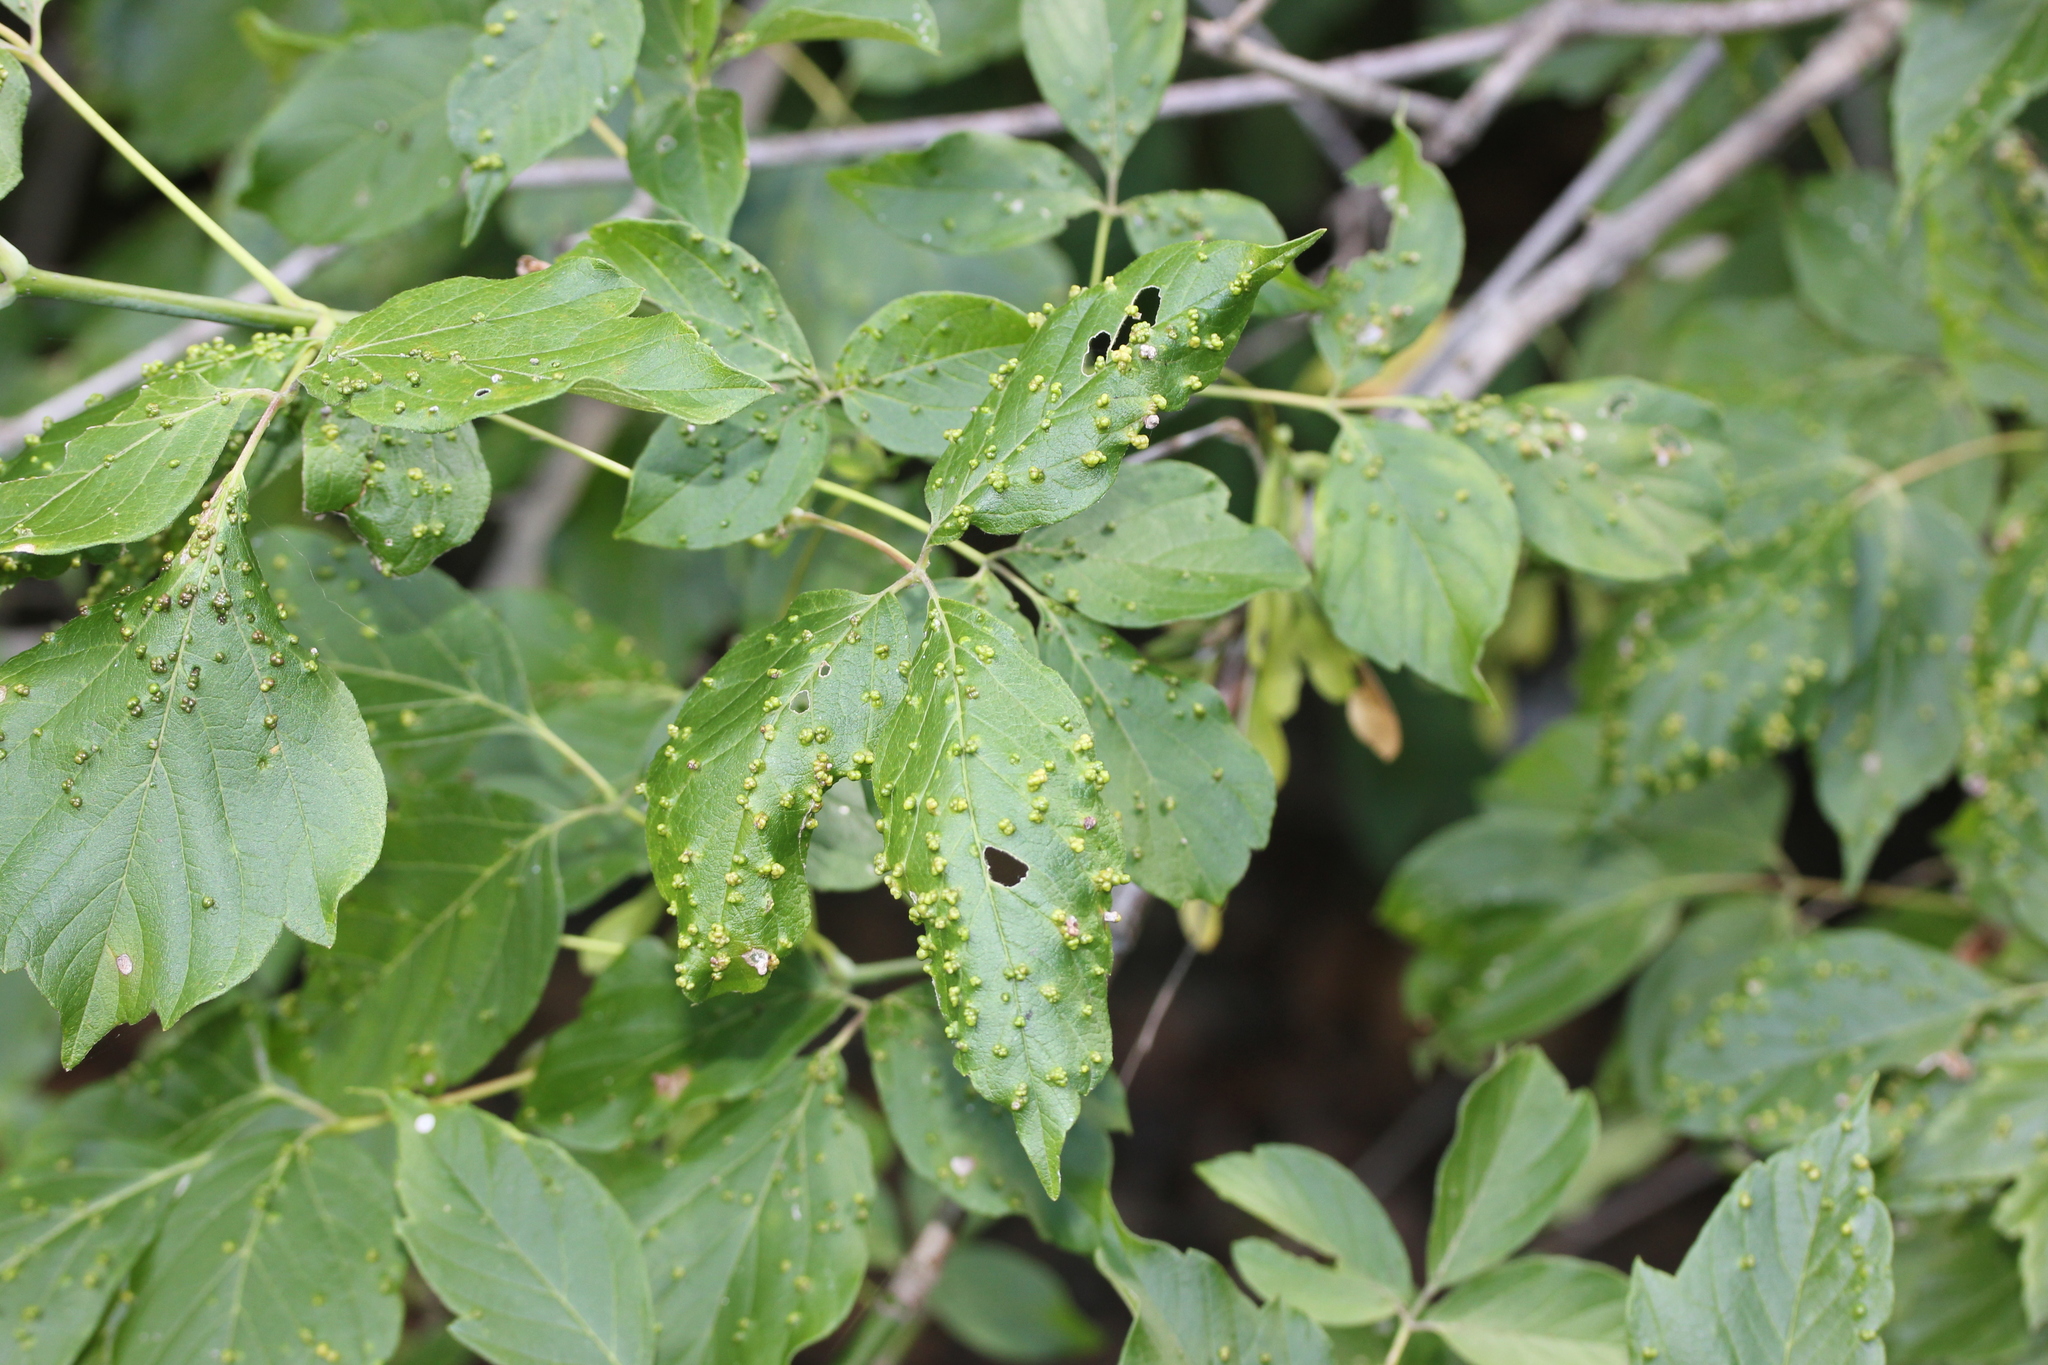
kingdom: Animalia
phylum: Arthropoda
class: Arachnida
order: Trombidiformes
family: Eriophyidae
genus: Aceria
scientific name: Aceria
